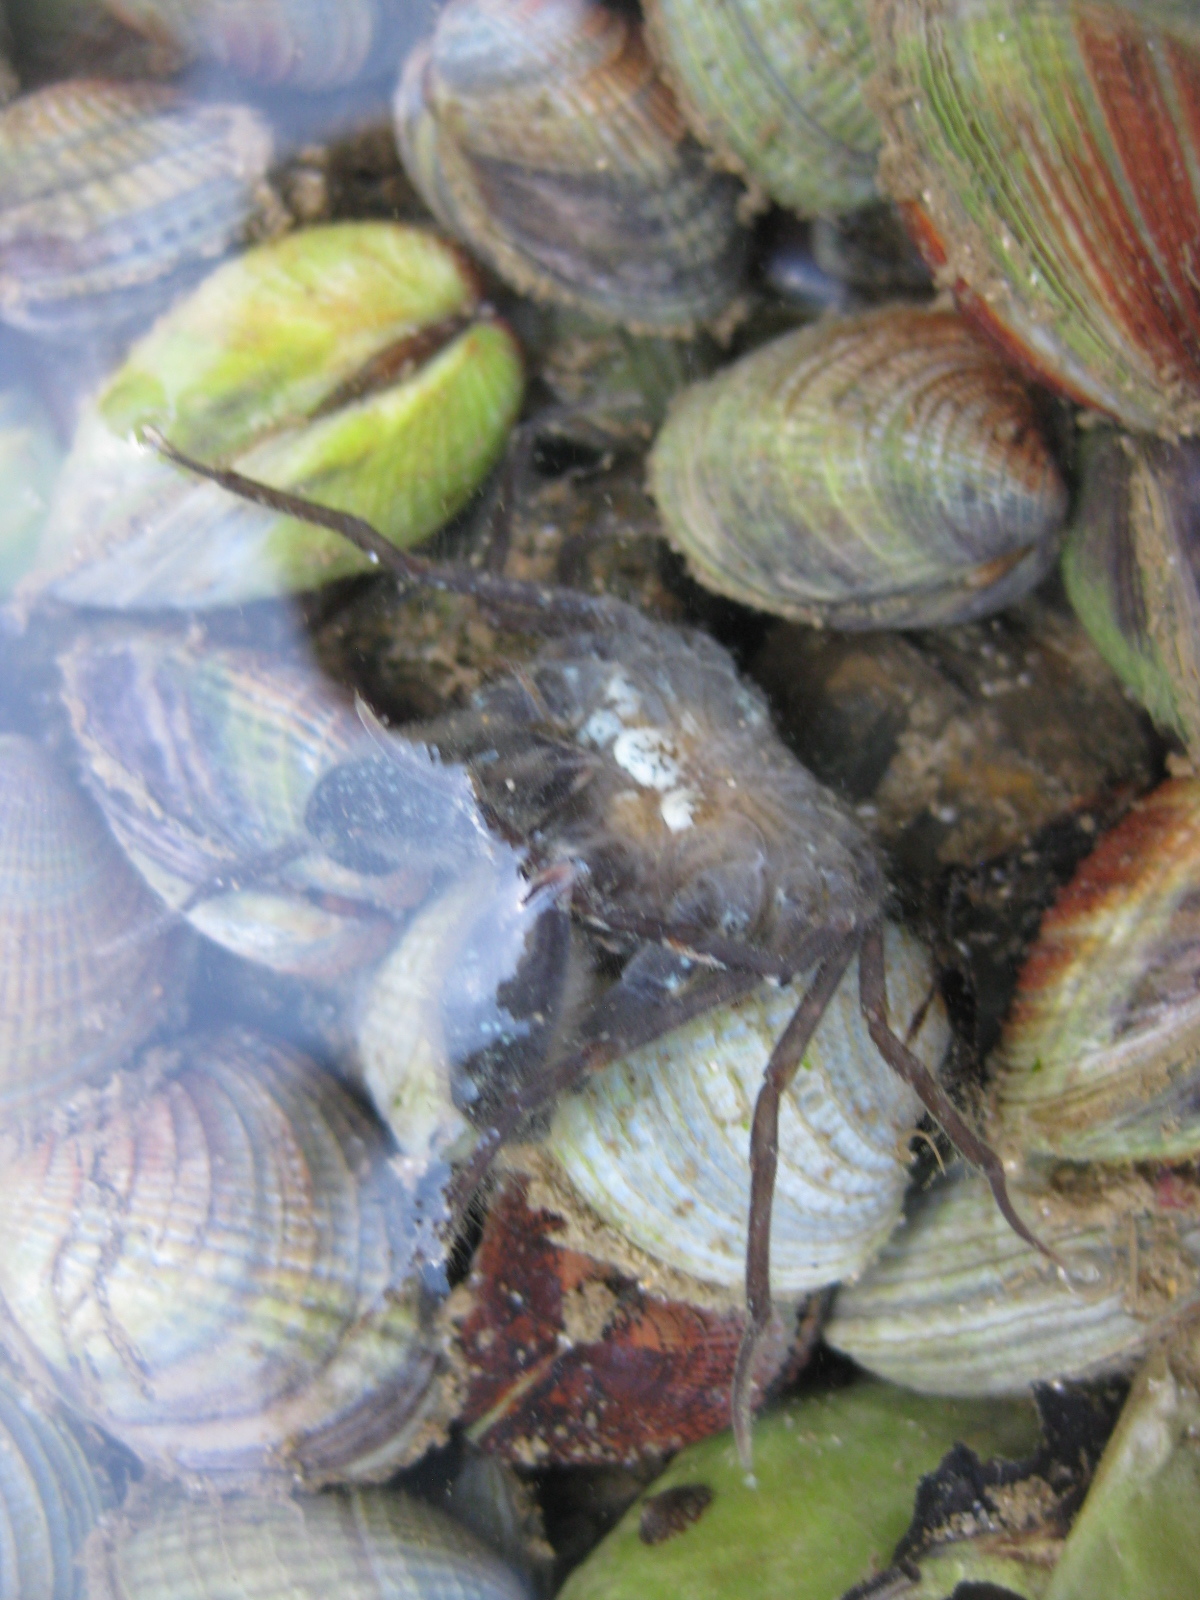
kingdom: Animalia
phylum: Arthropoda
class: Malacostraca
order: Decapoda
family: Hymenosomatidae
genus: Halicarcinus
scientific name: Halicarcinus varius
